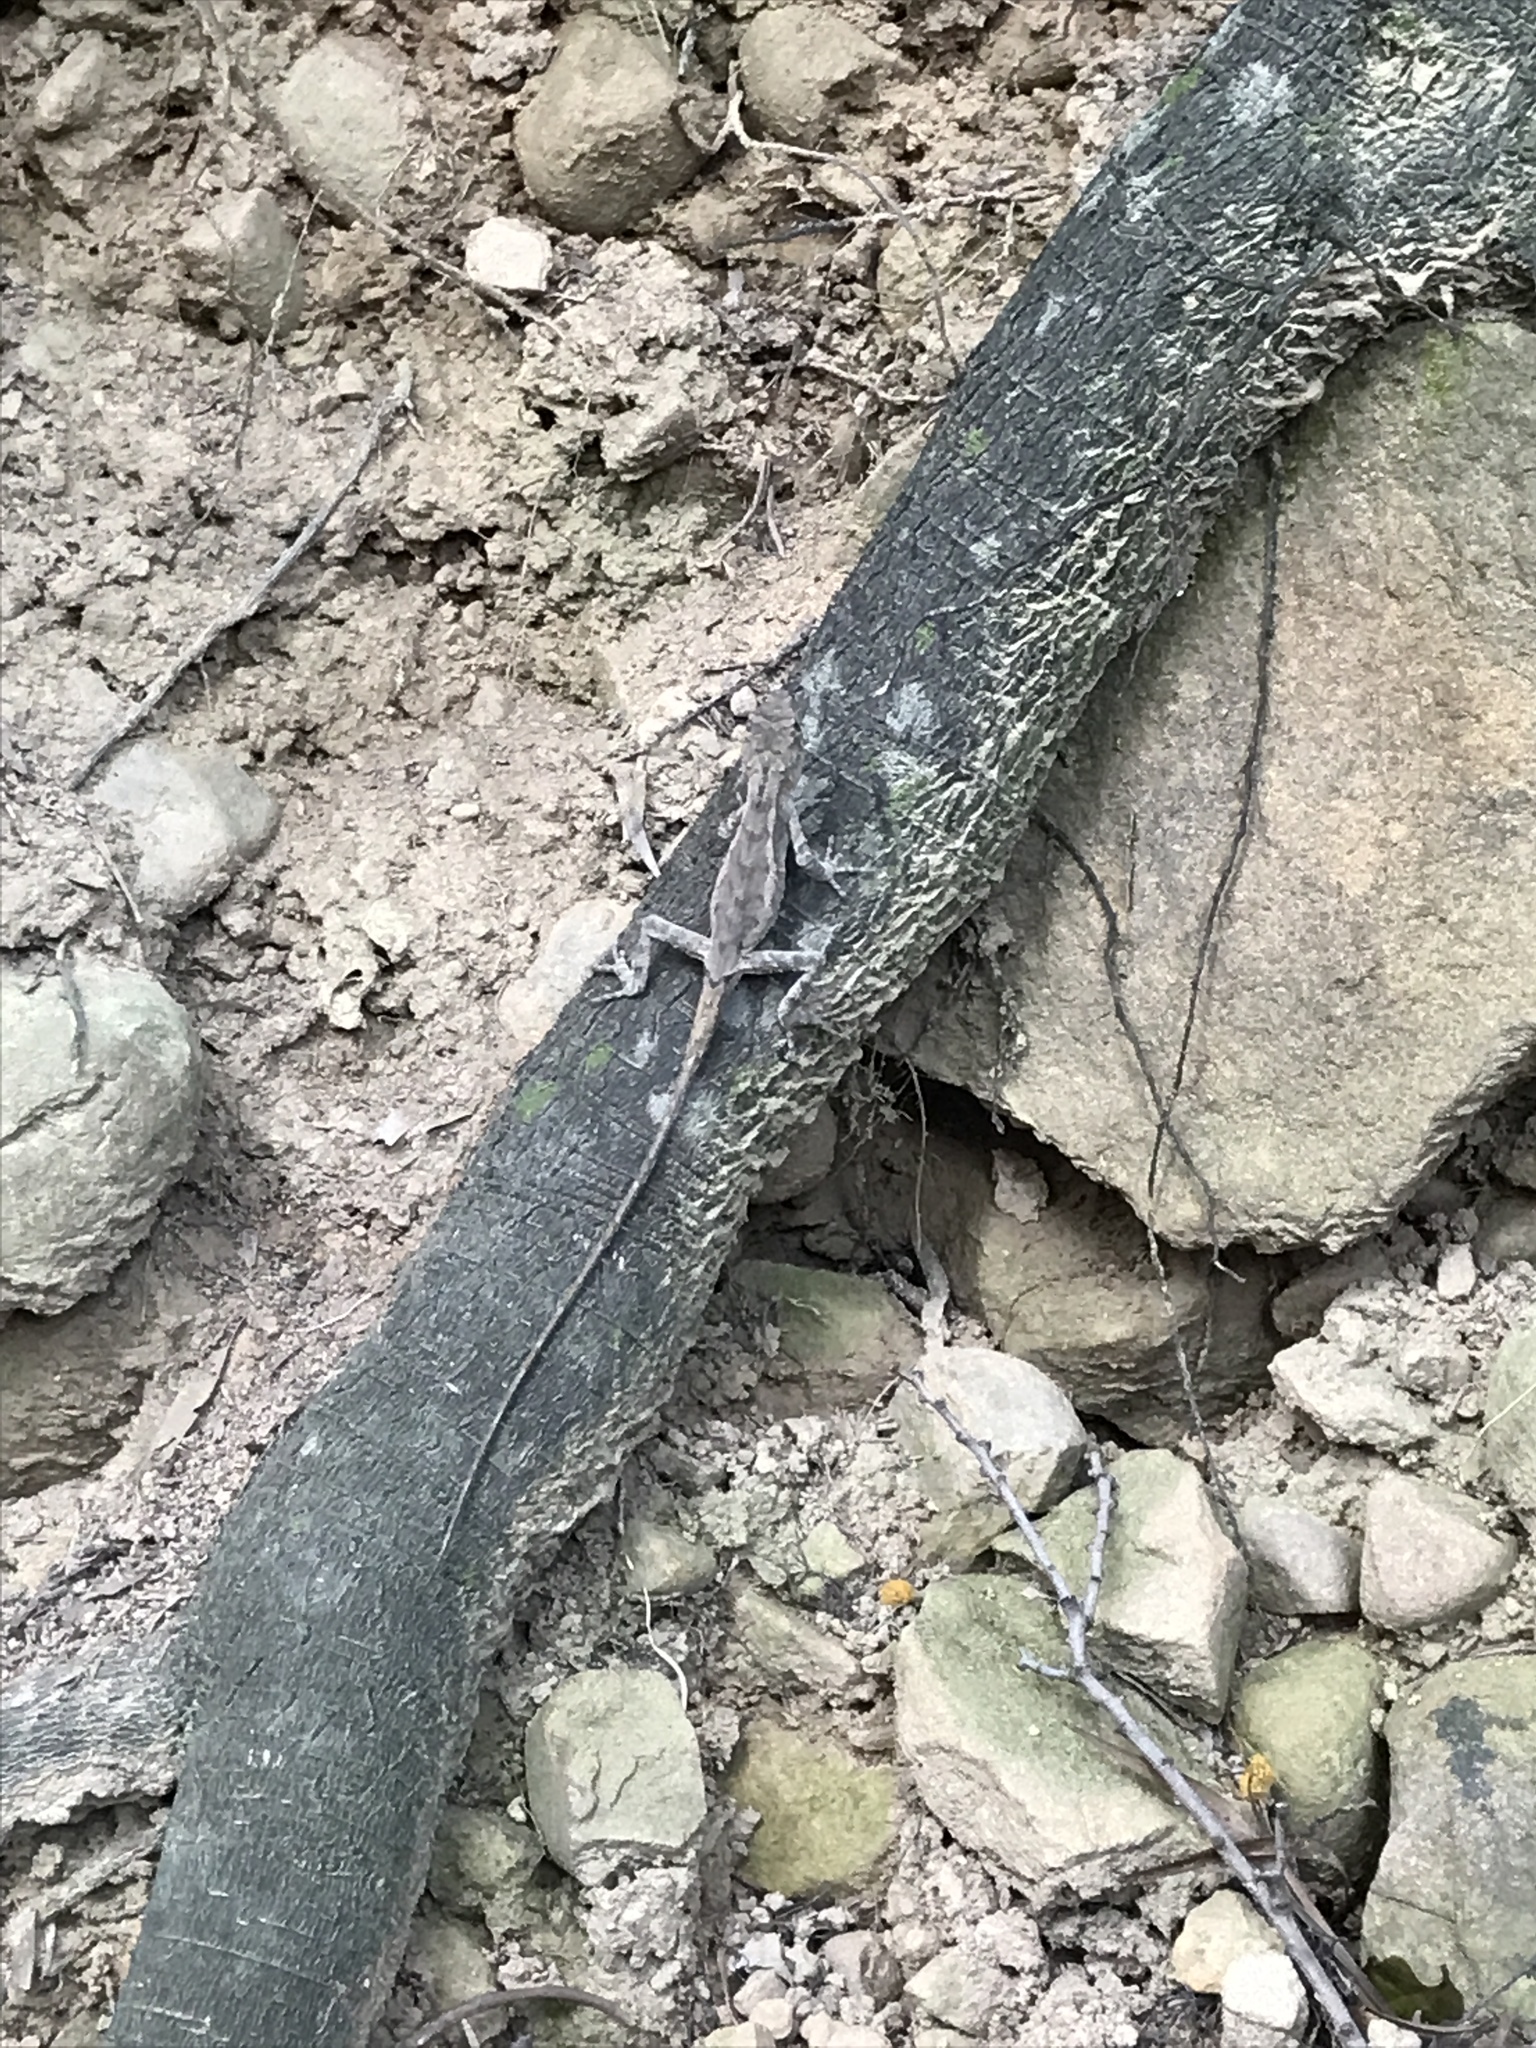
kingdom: Animalia
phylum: Chordata
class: Squamata
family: Agamidae
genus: Diploderma
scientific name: Diploderma swinhonis
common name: Taiwan japalure
